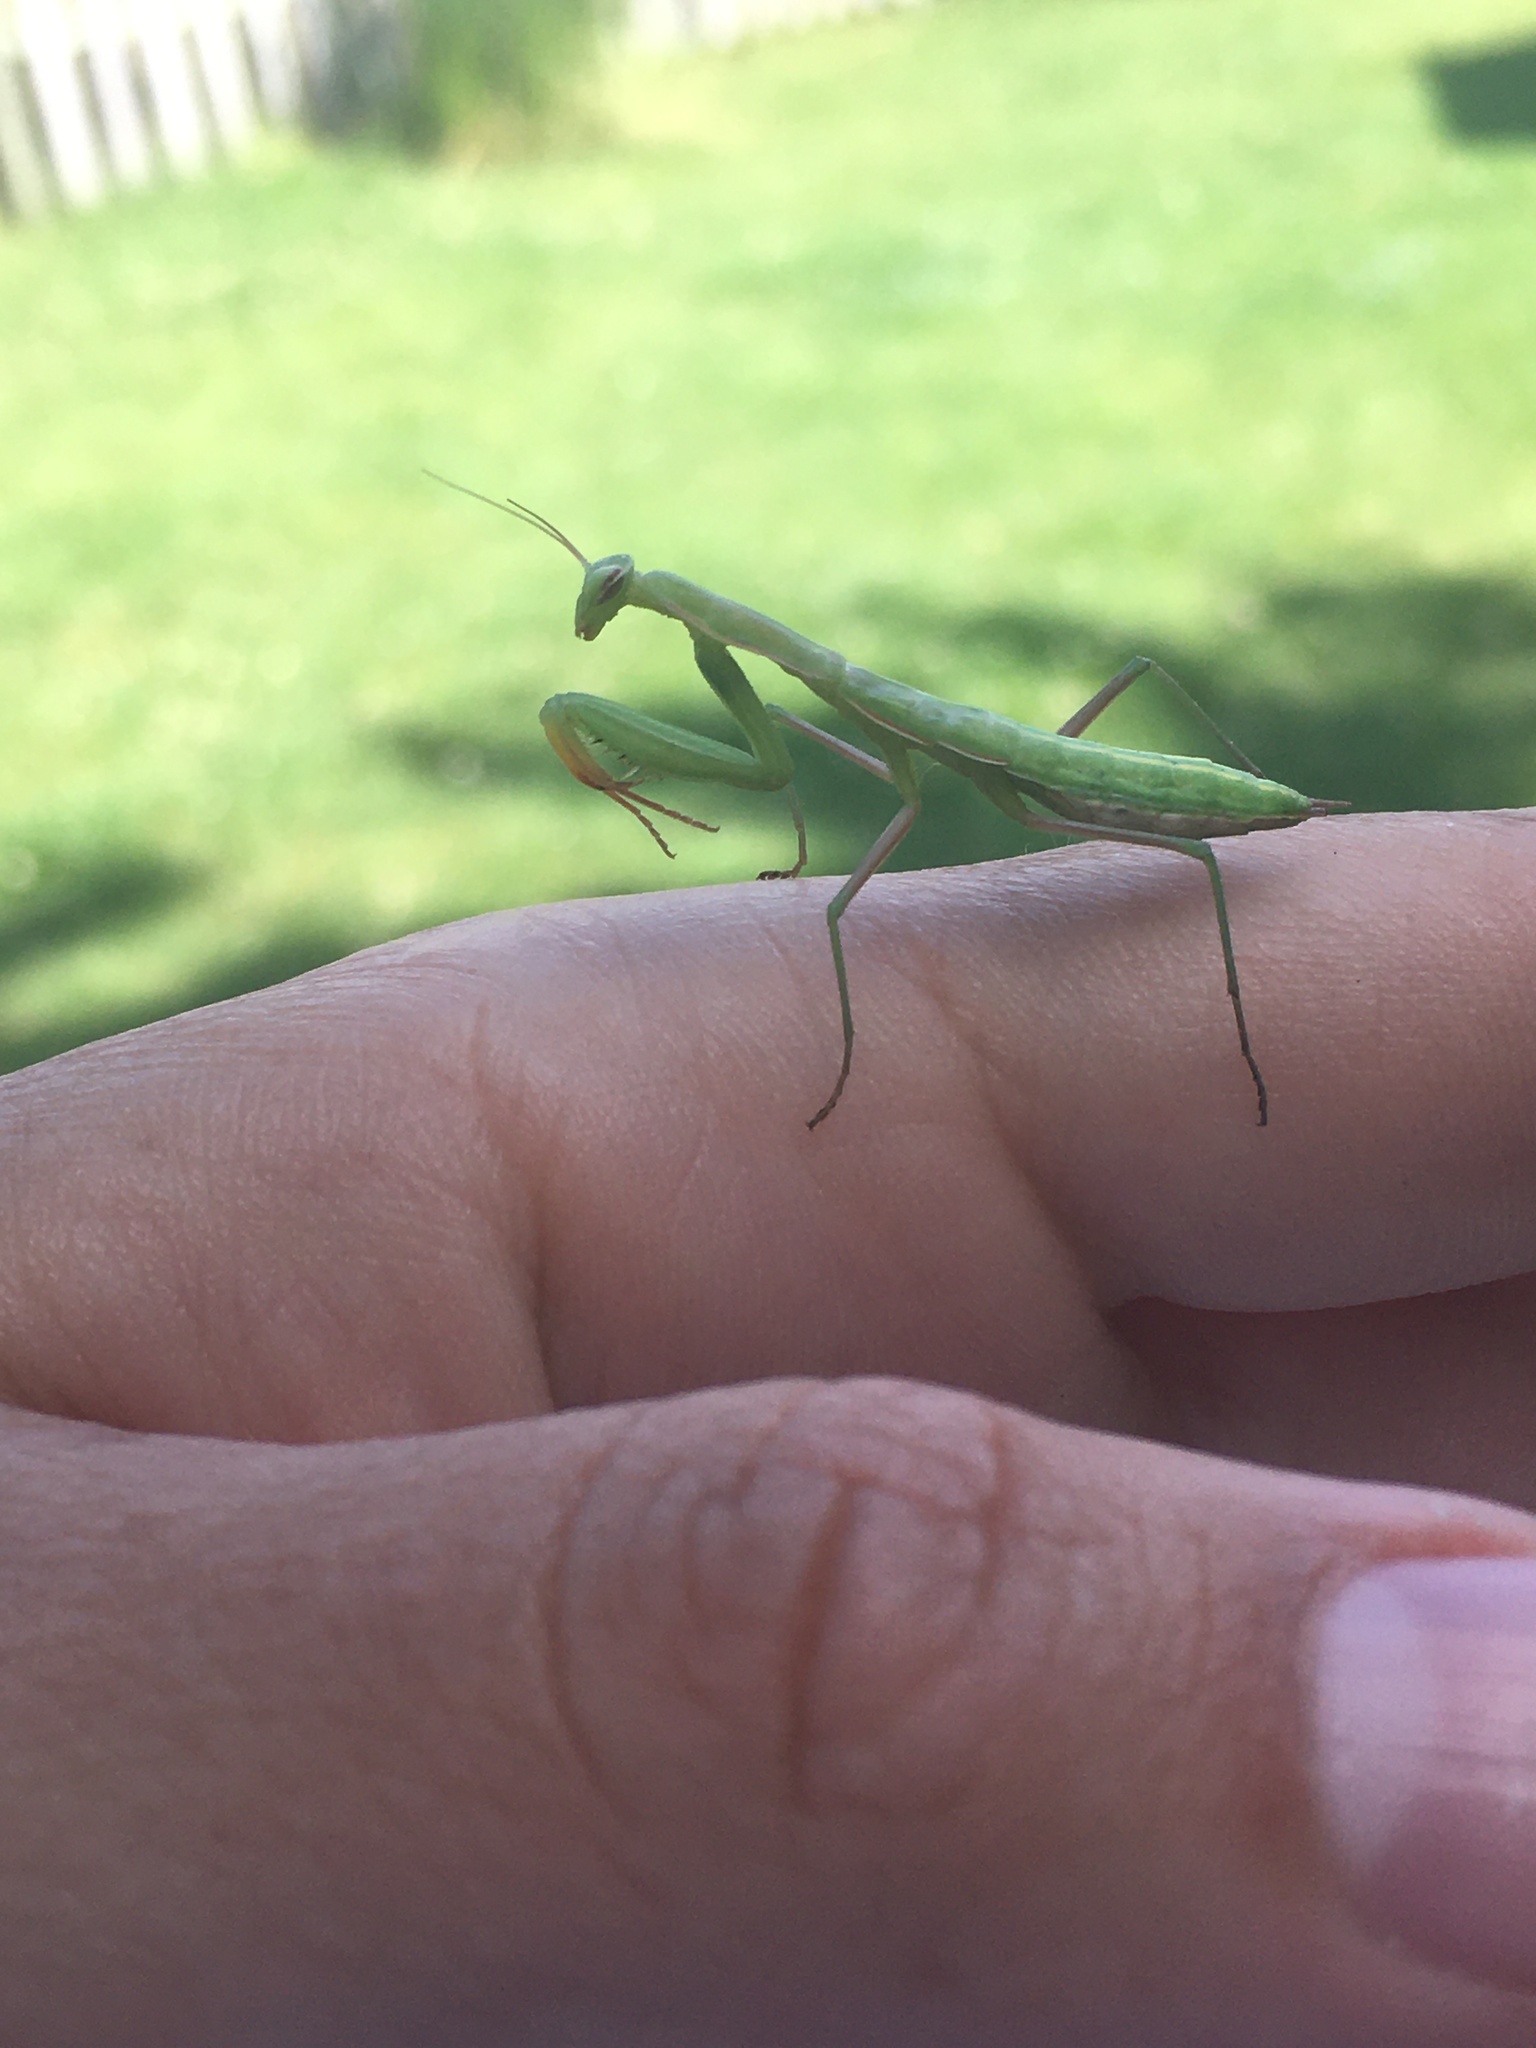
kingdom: Animalia
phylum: Arthropoda
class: Insecta
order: Mantodea
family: Mantidae
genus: Mantis
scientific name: Mantis religiosa
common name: Praying mantis
